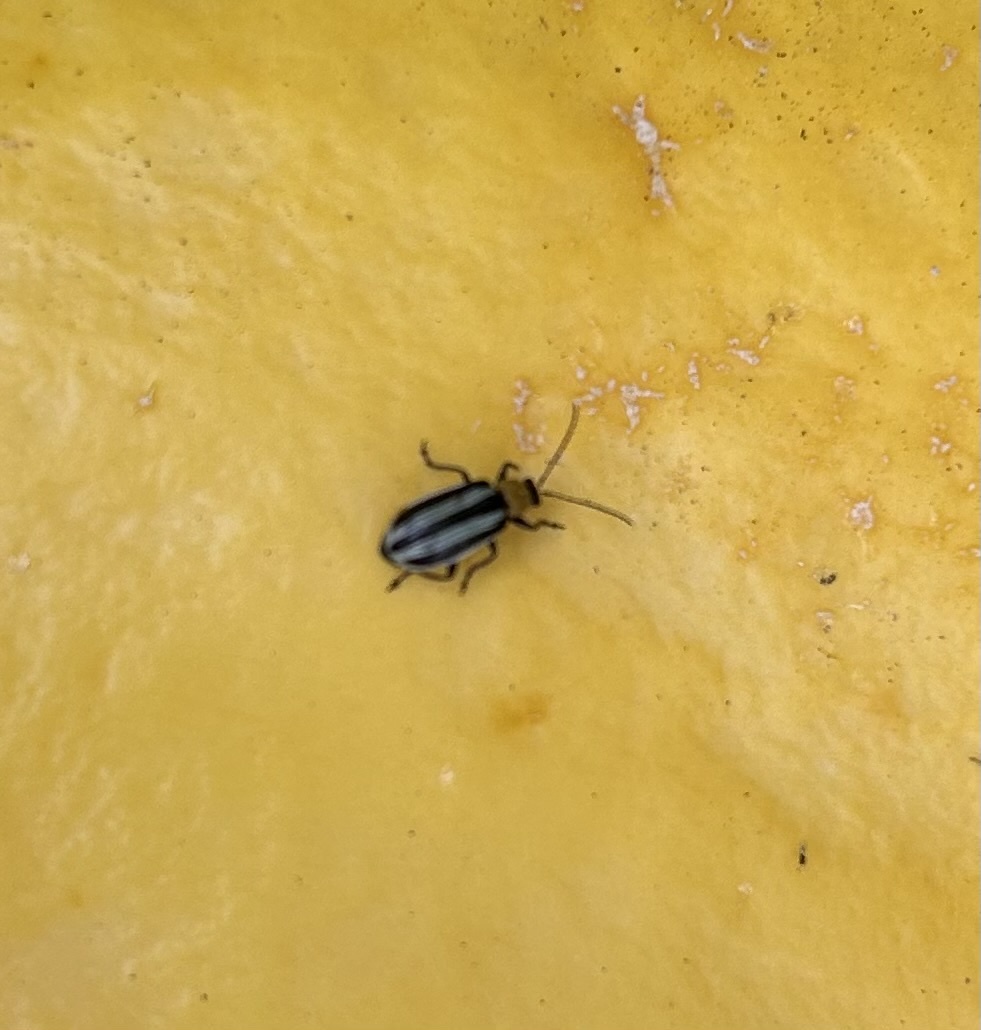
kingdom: Animalia
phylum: Arthropoda
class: Insecta
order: Coleoptera
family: Chrysomelidae
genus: Acalymma
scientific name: Acalymma trivittatum
